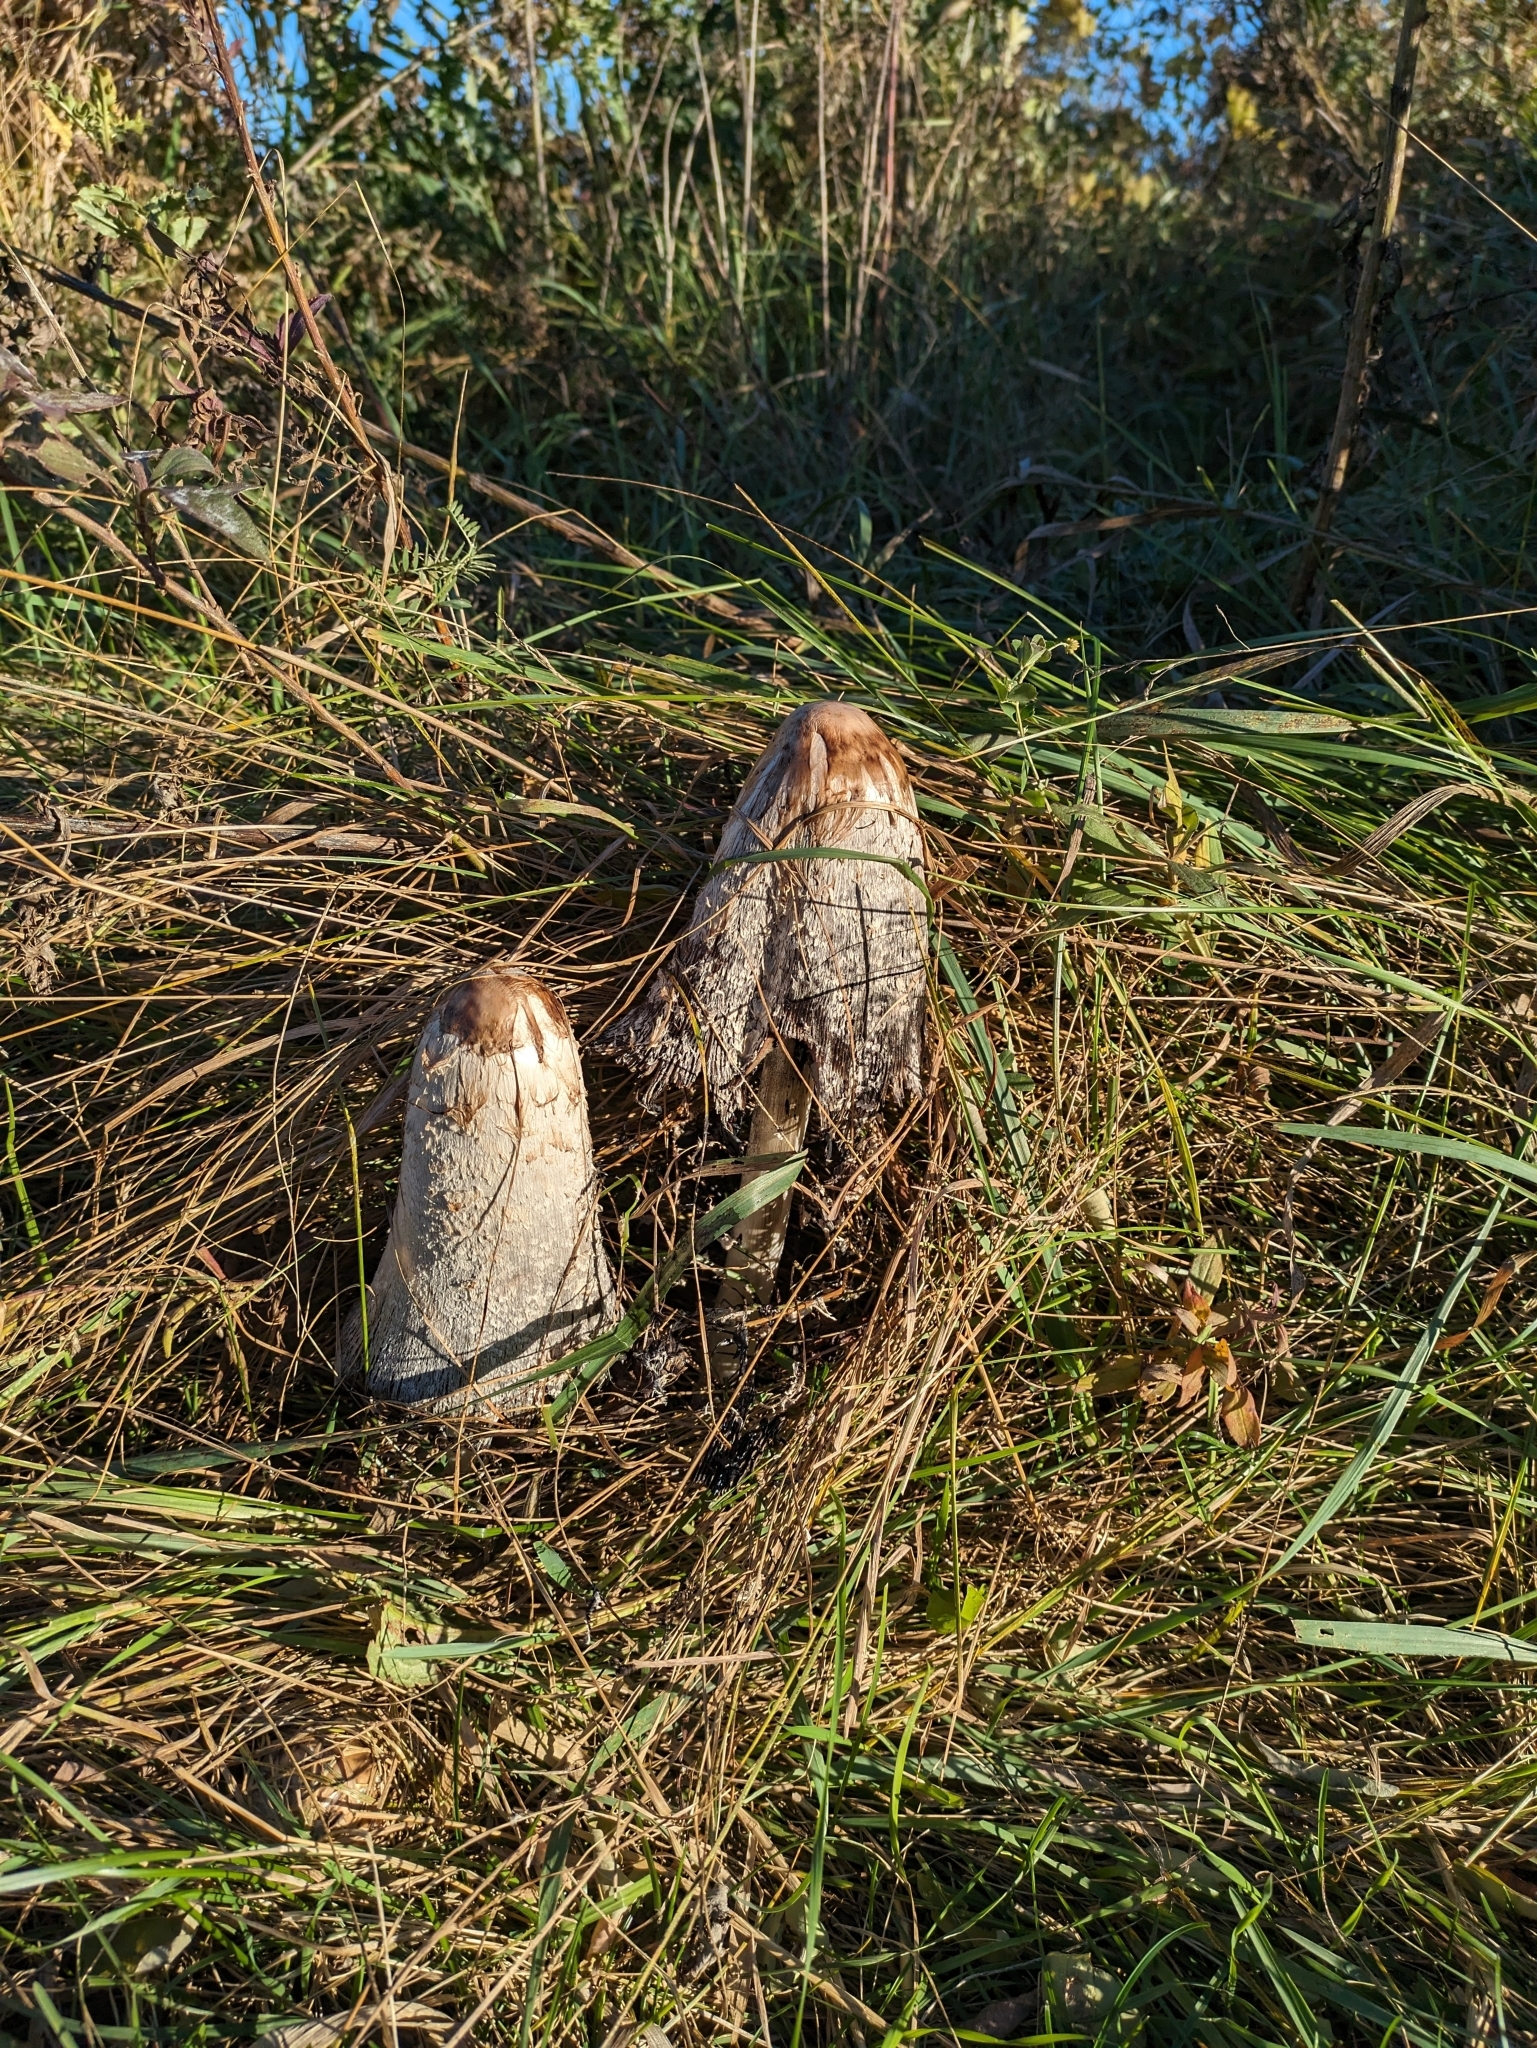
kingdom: Fungi
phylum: Basidiomycota
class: Agaricomycetes
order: Agaricales
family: Agaricaceae
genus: Coprinus
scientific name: Coprinus comatus
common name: Lawyer's wig
